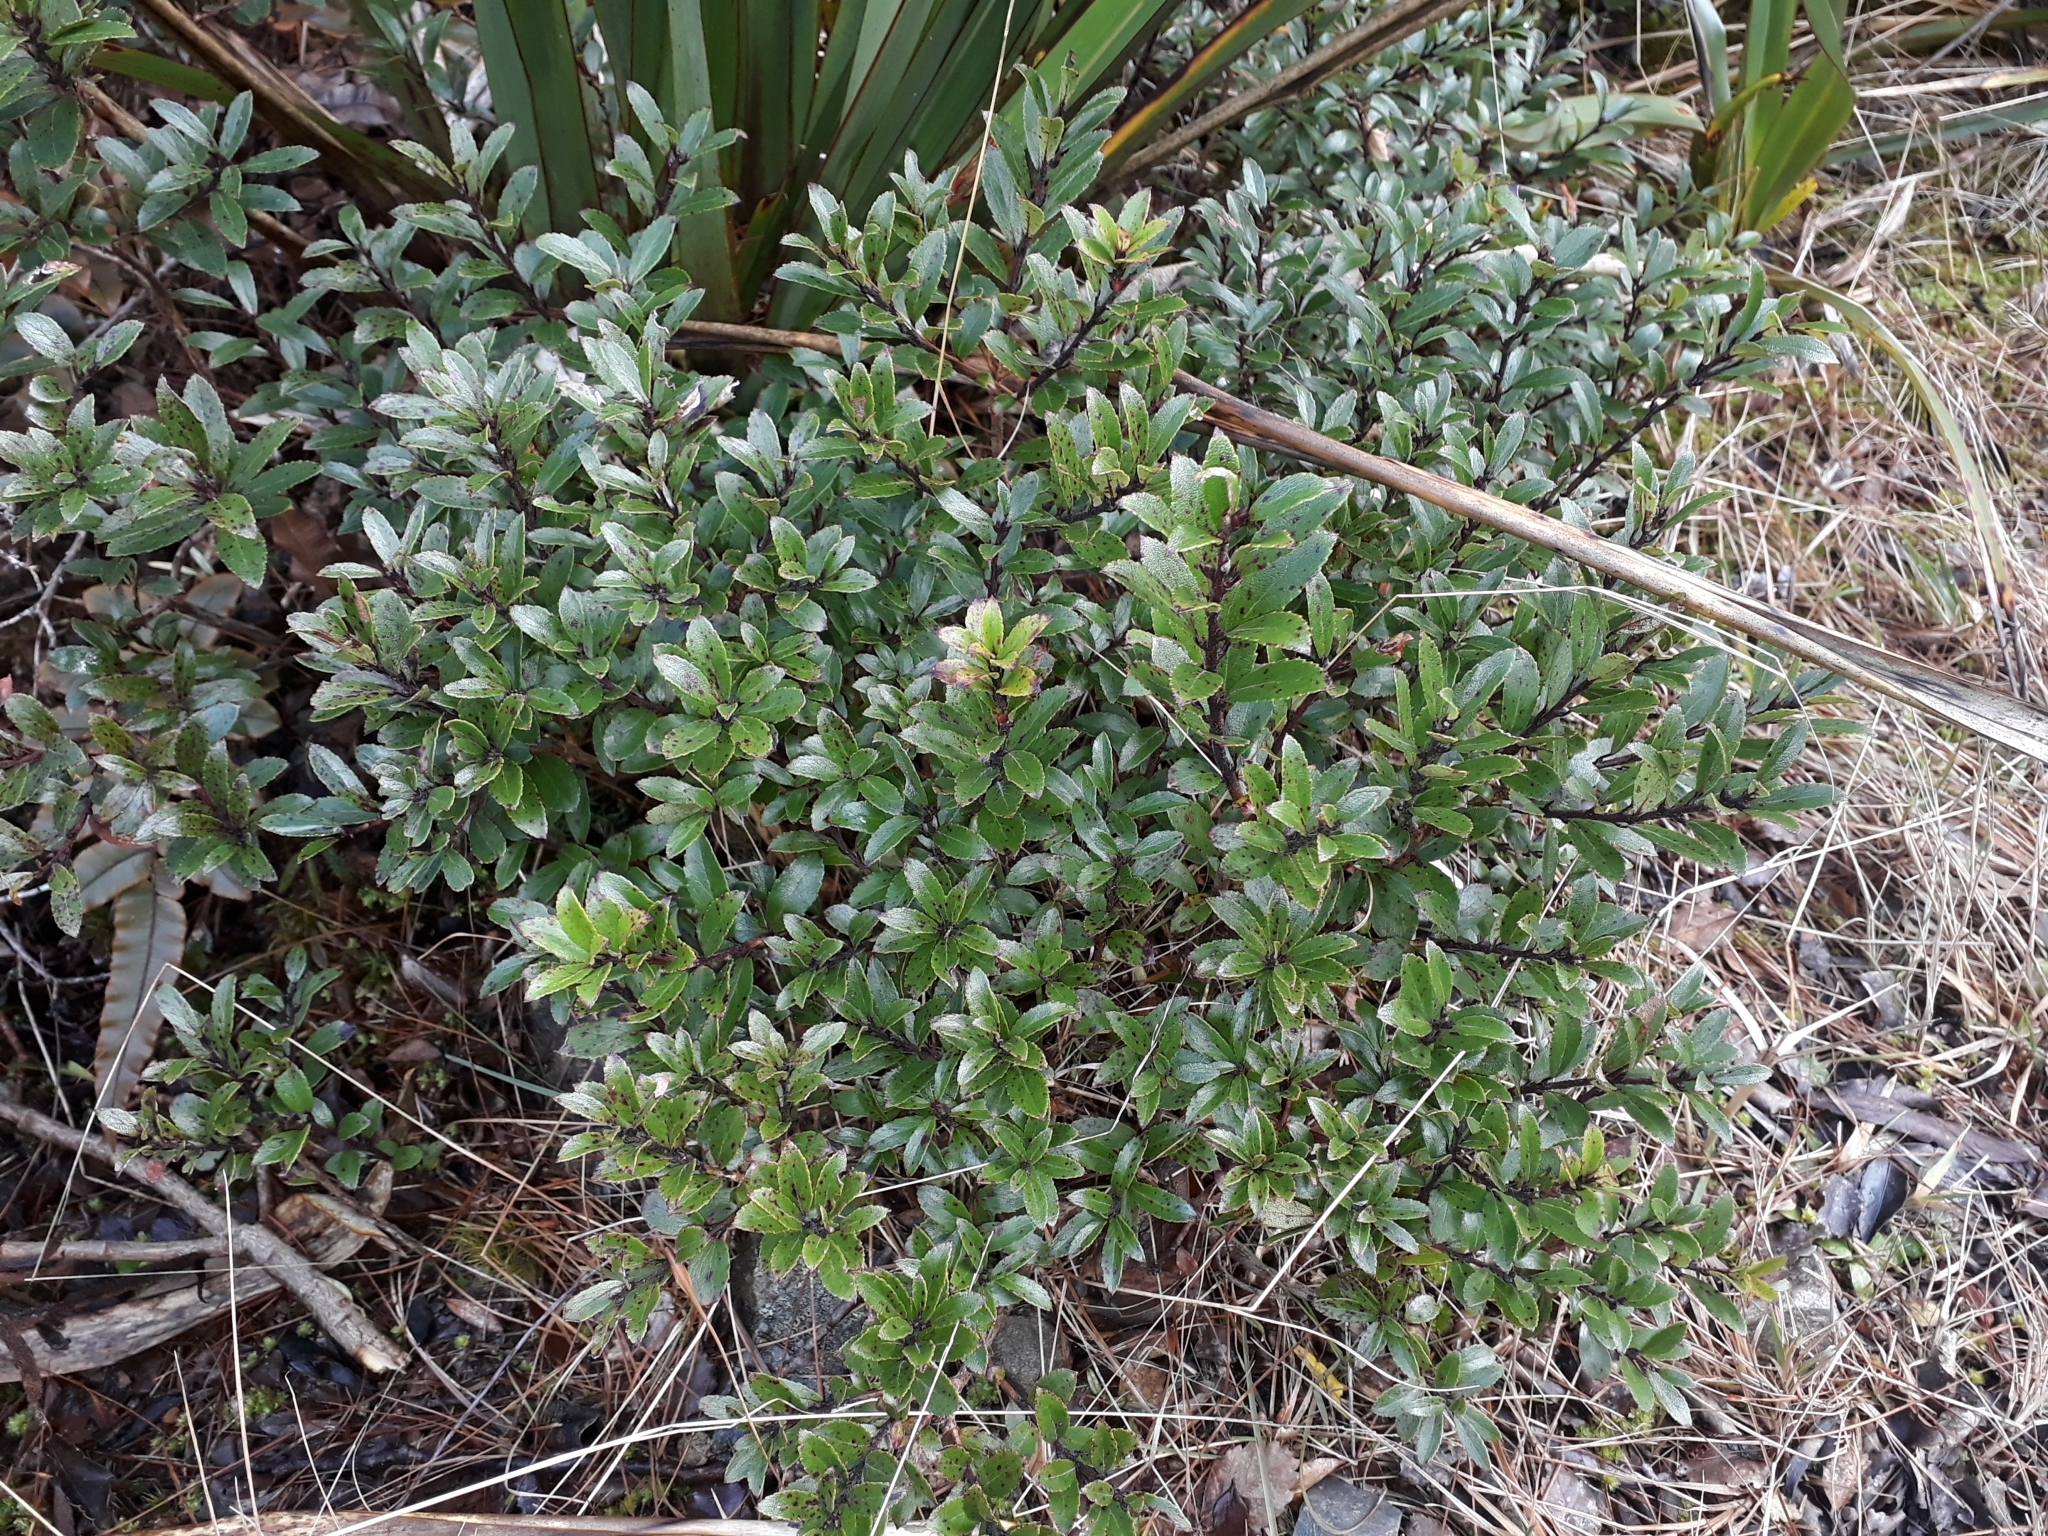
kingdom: Plantae
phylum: Tracheophyta
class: Magnoliopsida
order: Ericales
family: Ericaceae
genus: Gaultheria
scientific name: Gaultheria rupestris
